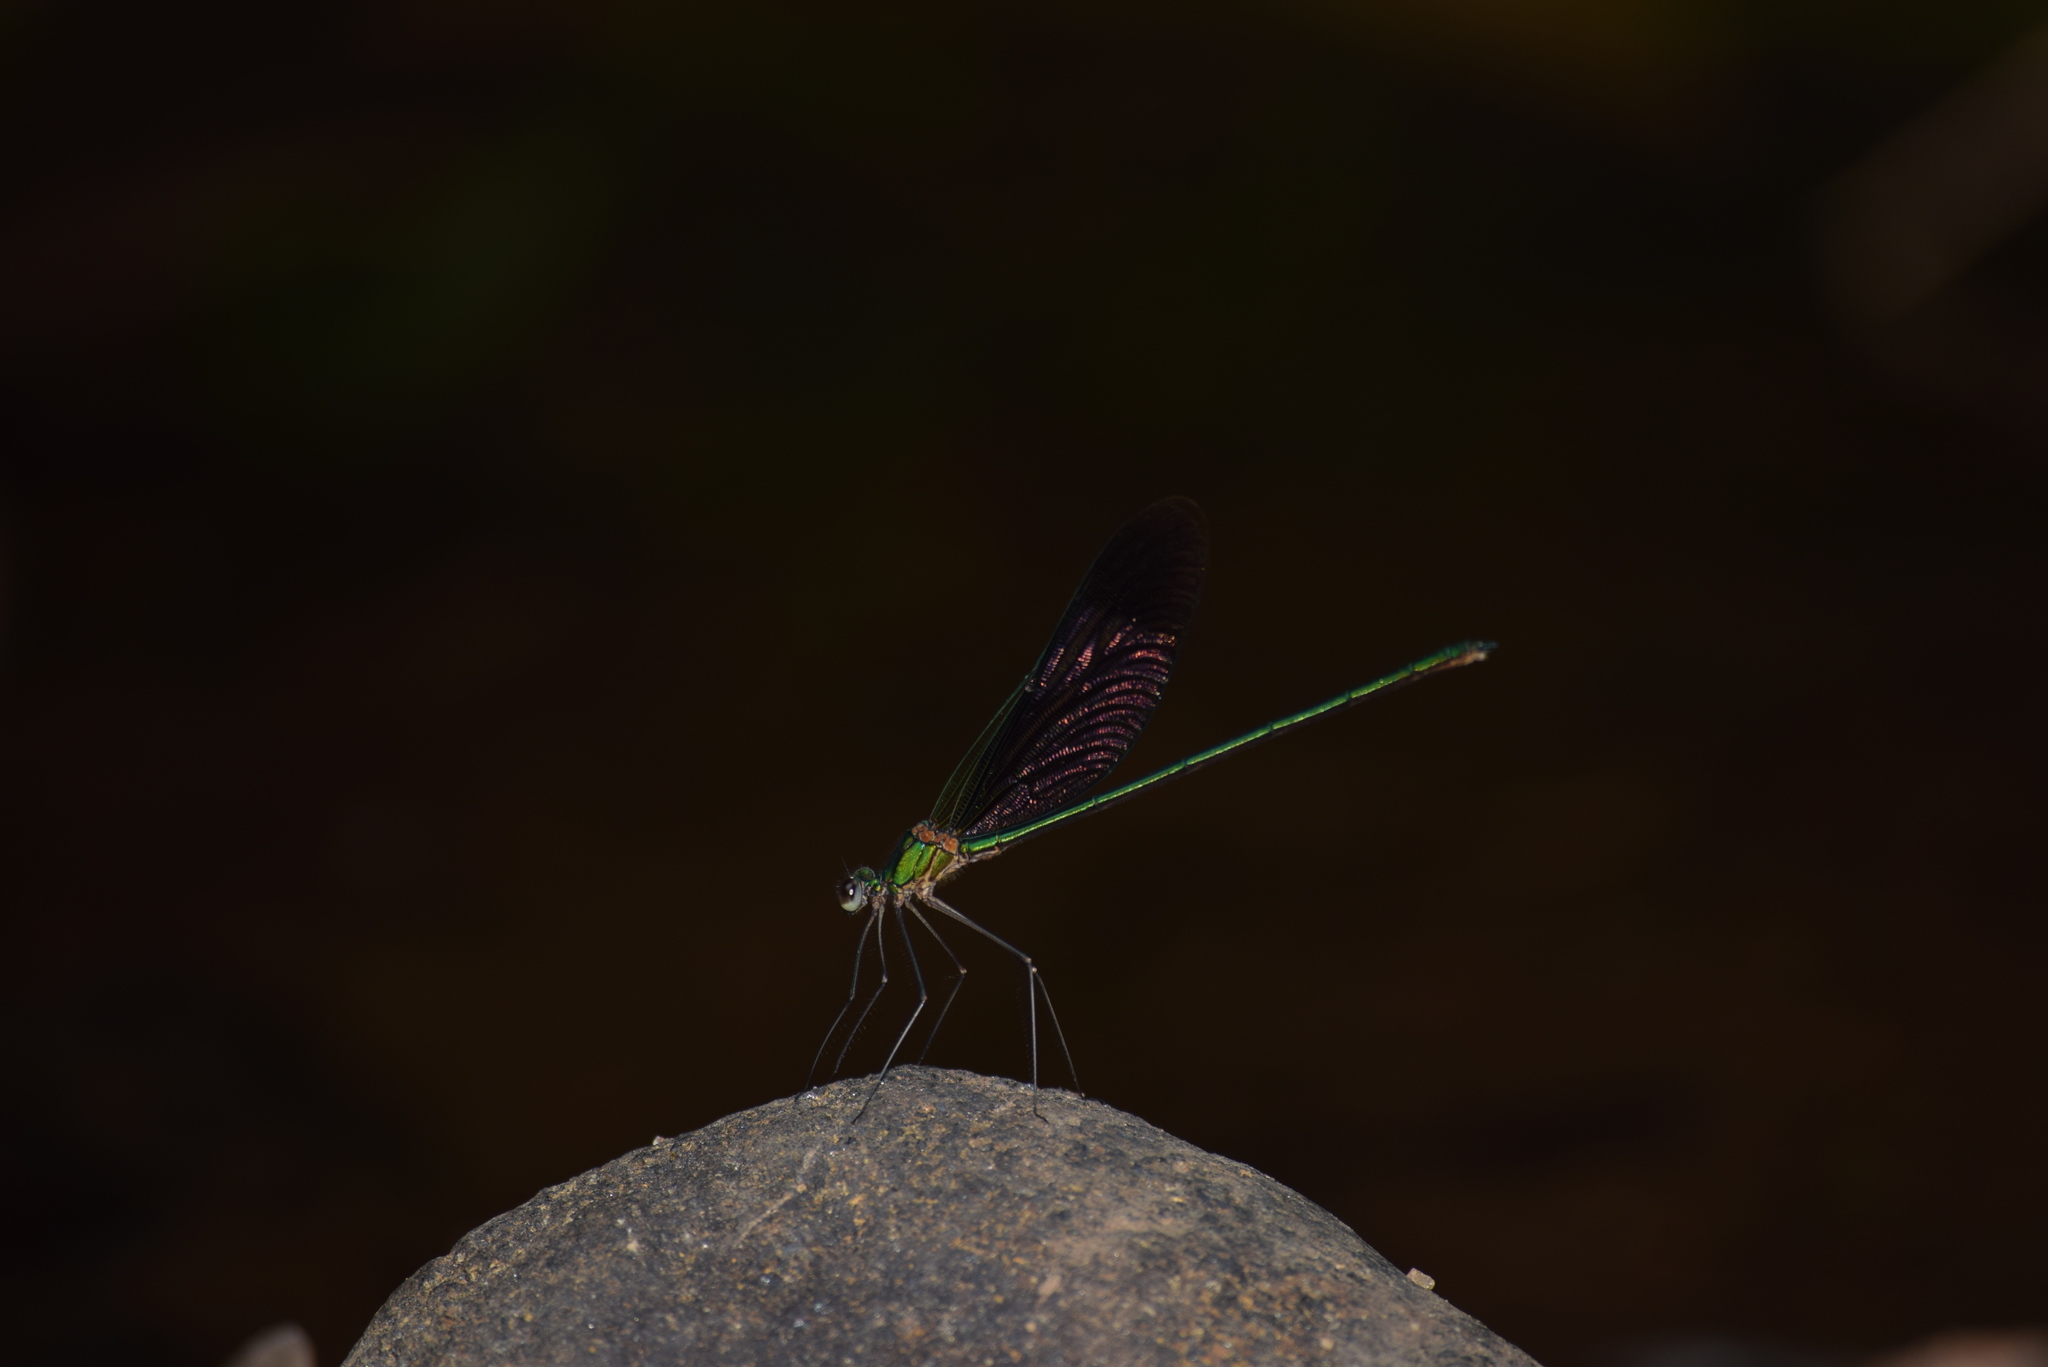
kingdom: Animalia
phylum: Arthropoda
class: Insecta
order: Odonata
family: Calopterygidae
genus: Vestalis
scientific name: Vestalis apicalis
